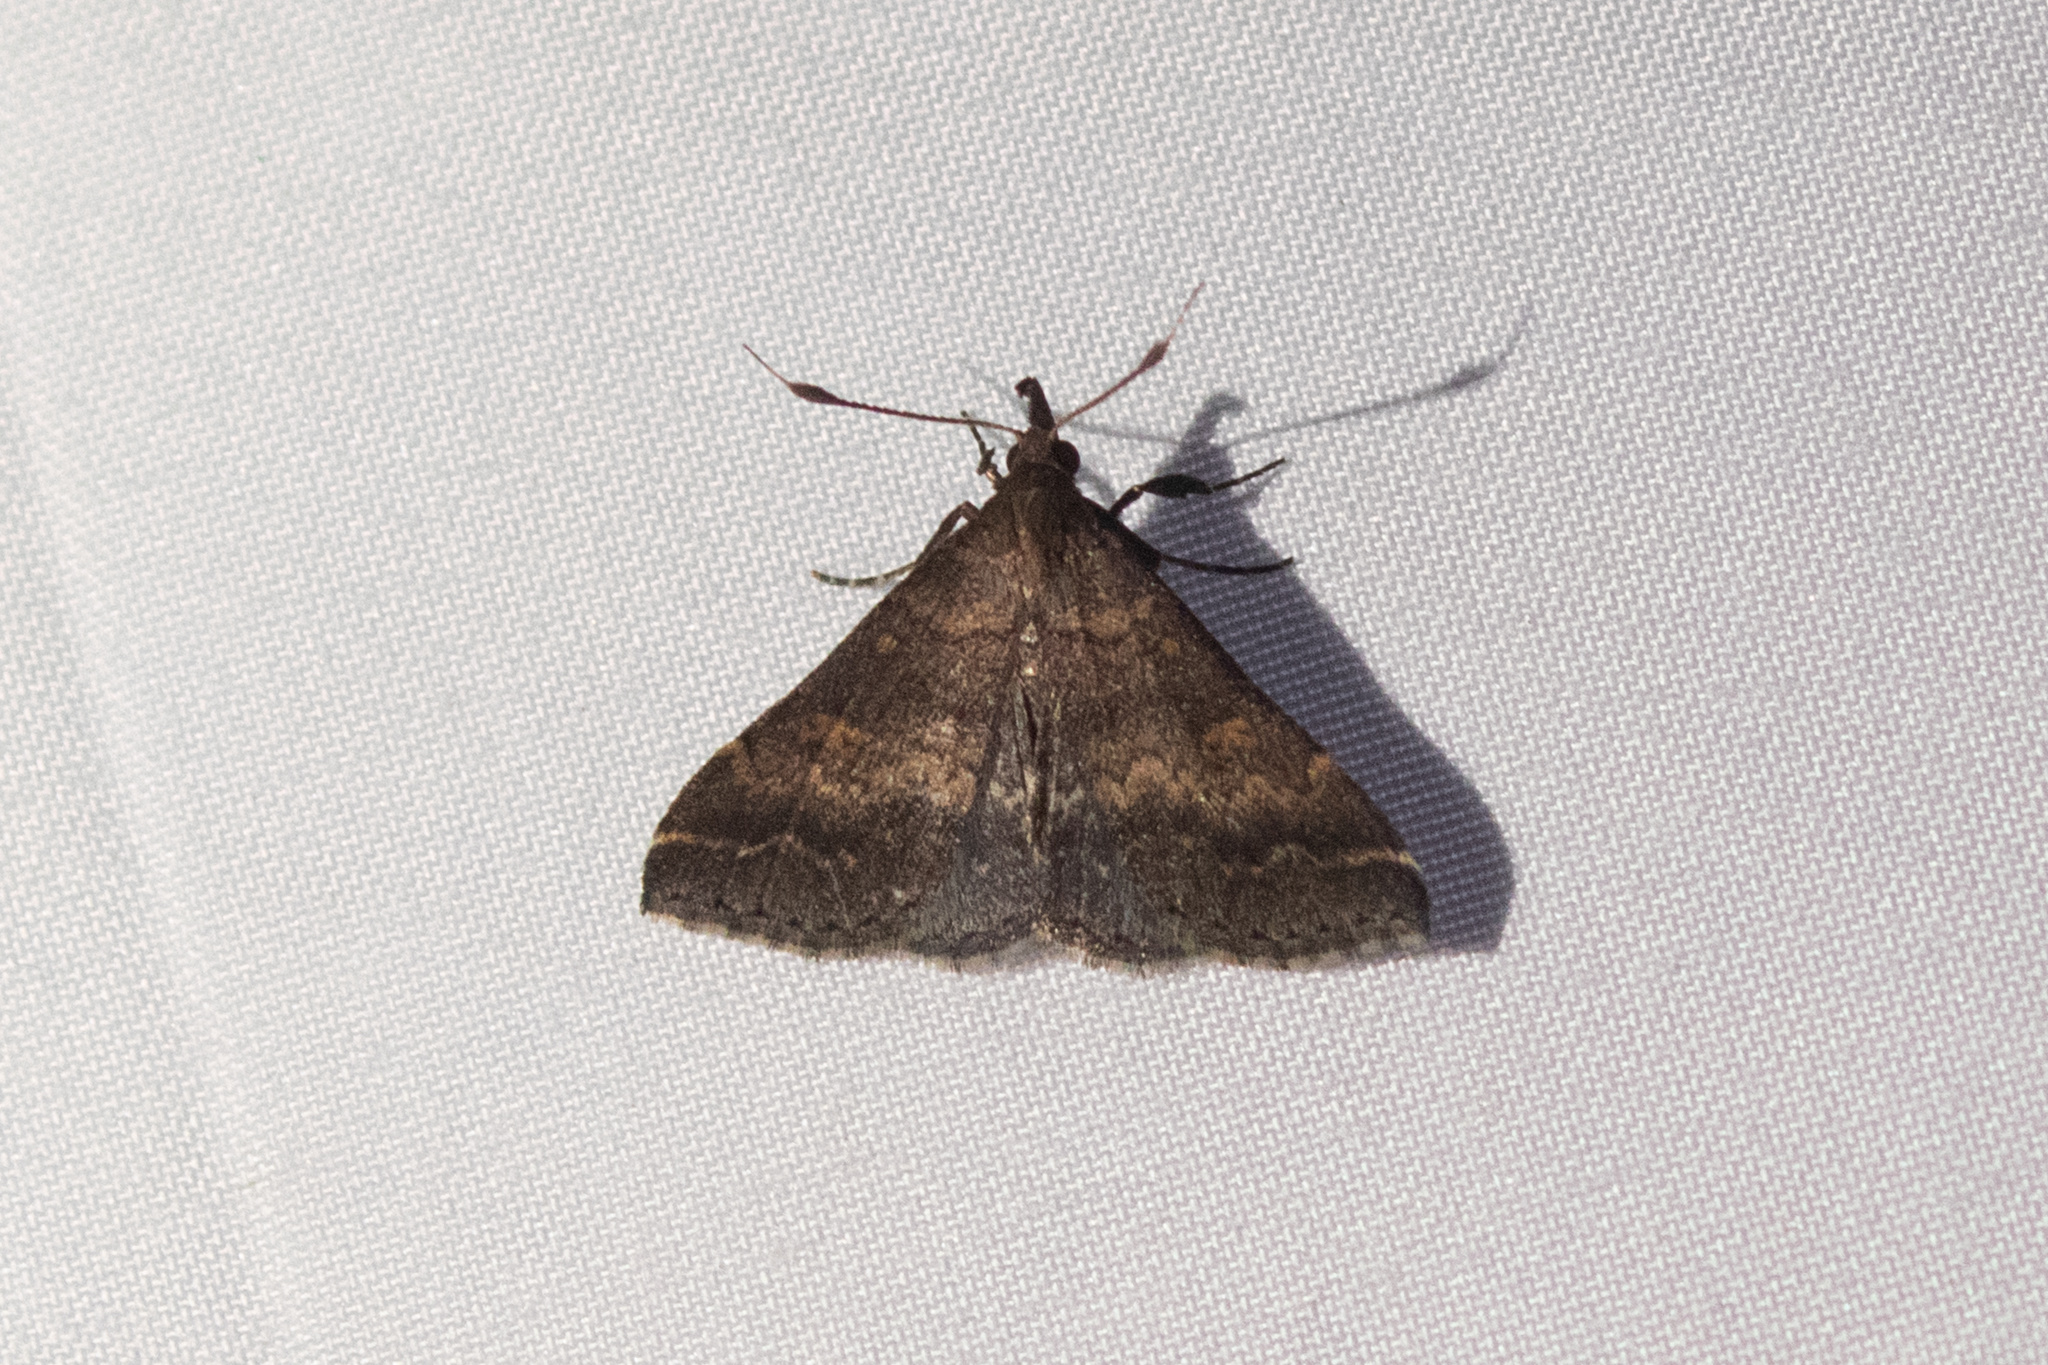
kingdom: Animalia
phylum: Arthropoda
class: Insecta
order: Lepidoptera
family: Erebidae
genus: Renia
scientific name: Renia factiosalis
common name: Sociable renia moth
